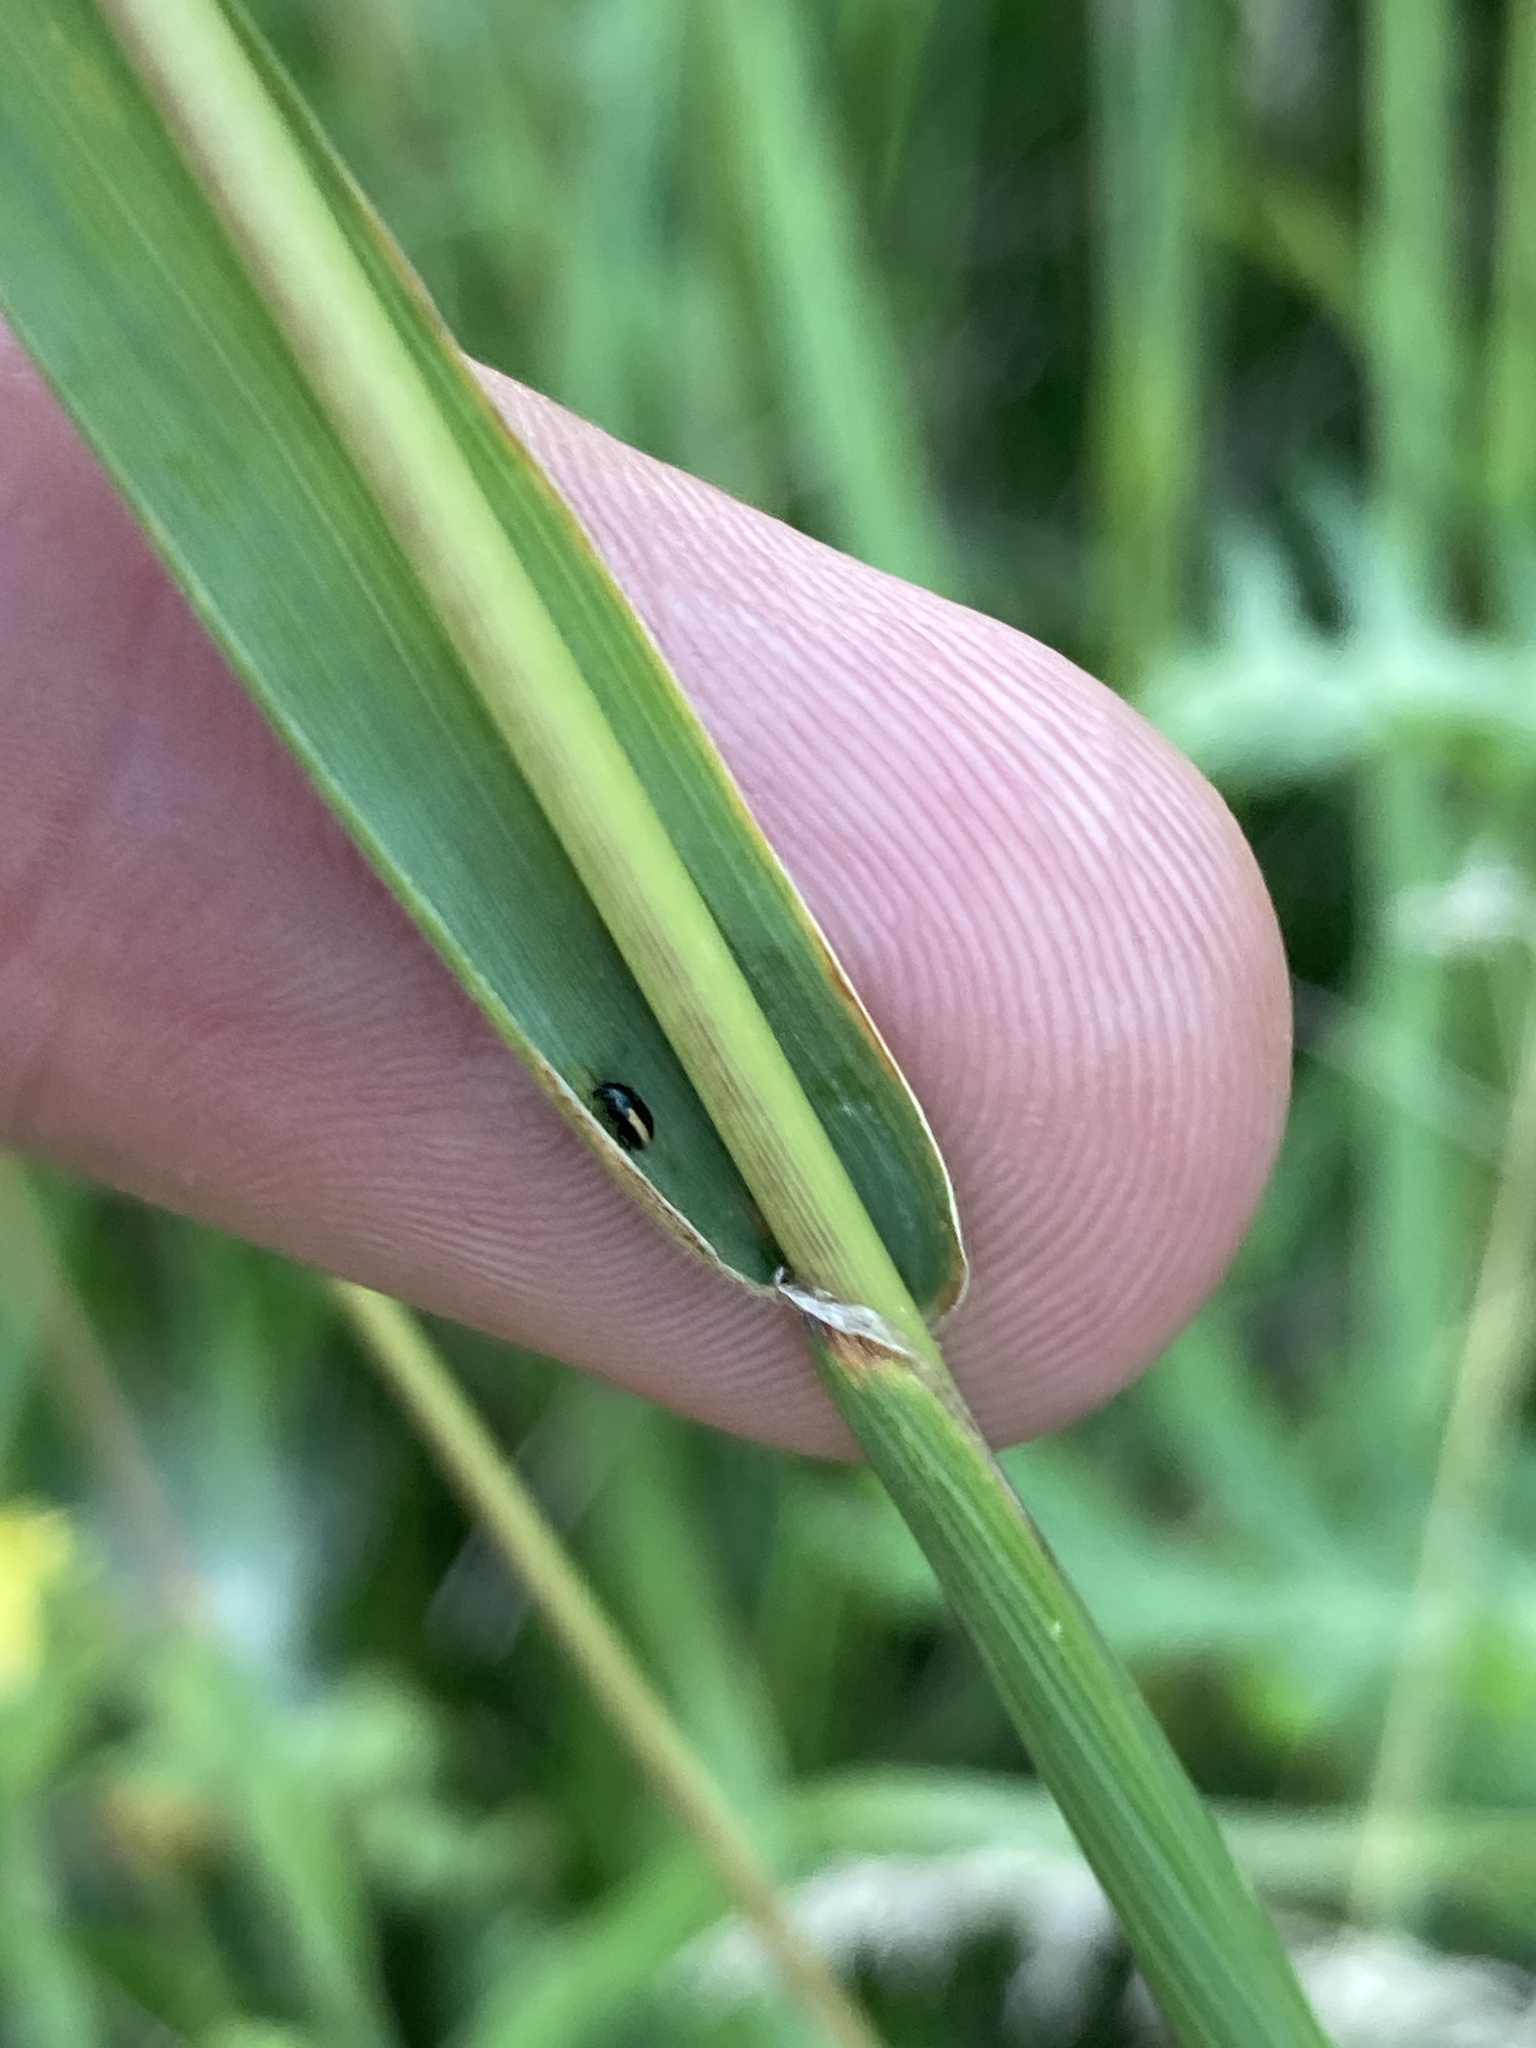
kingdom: Plantae
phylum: Tracheophyta
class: Liliopsida
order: Poales
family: Poaceae
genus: Phleum
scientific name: Phleum pratense
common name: Timothy grass
